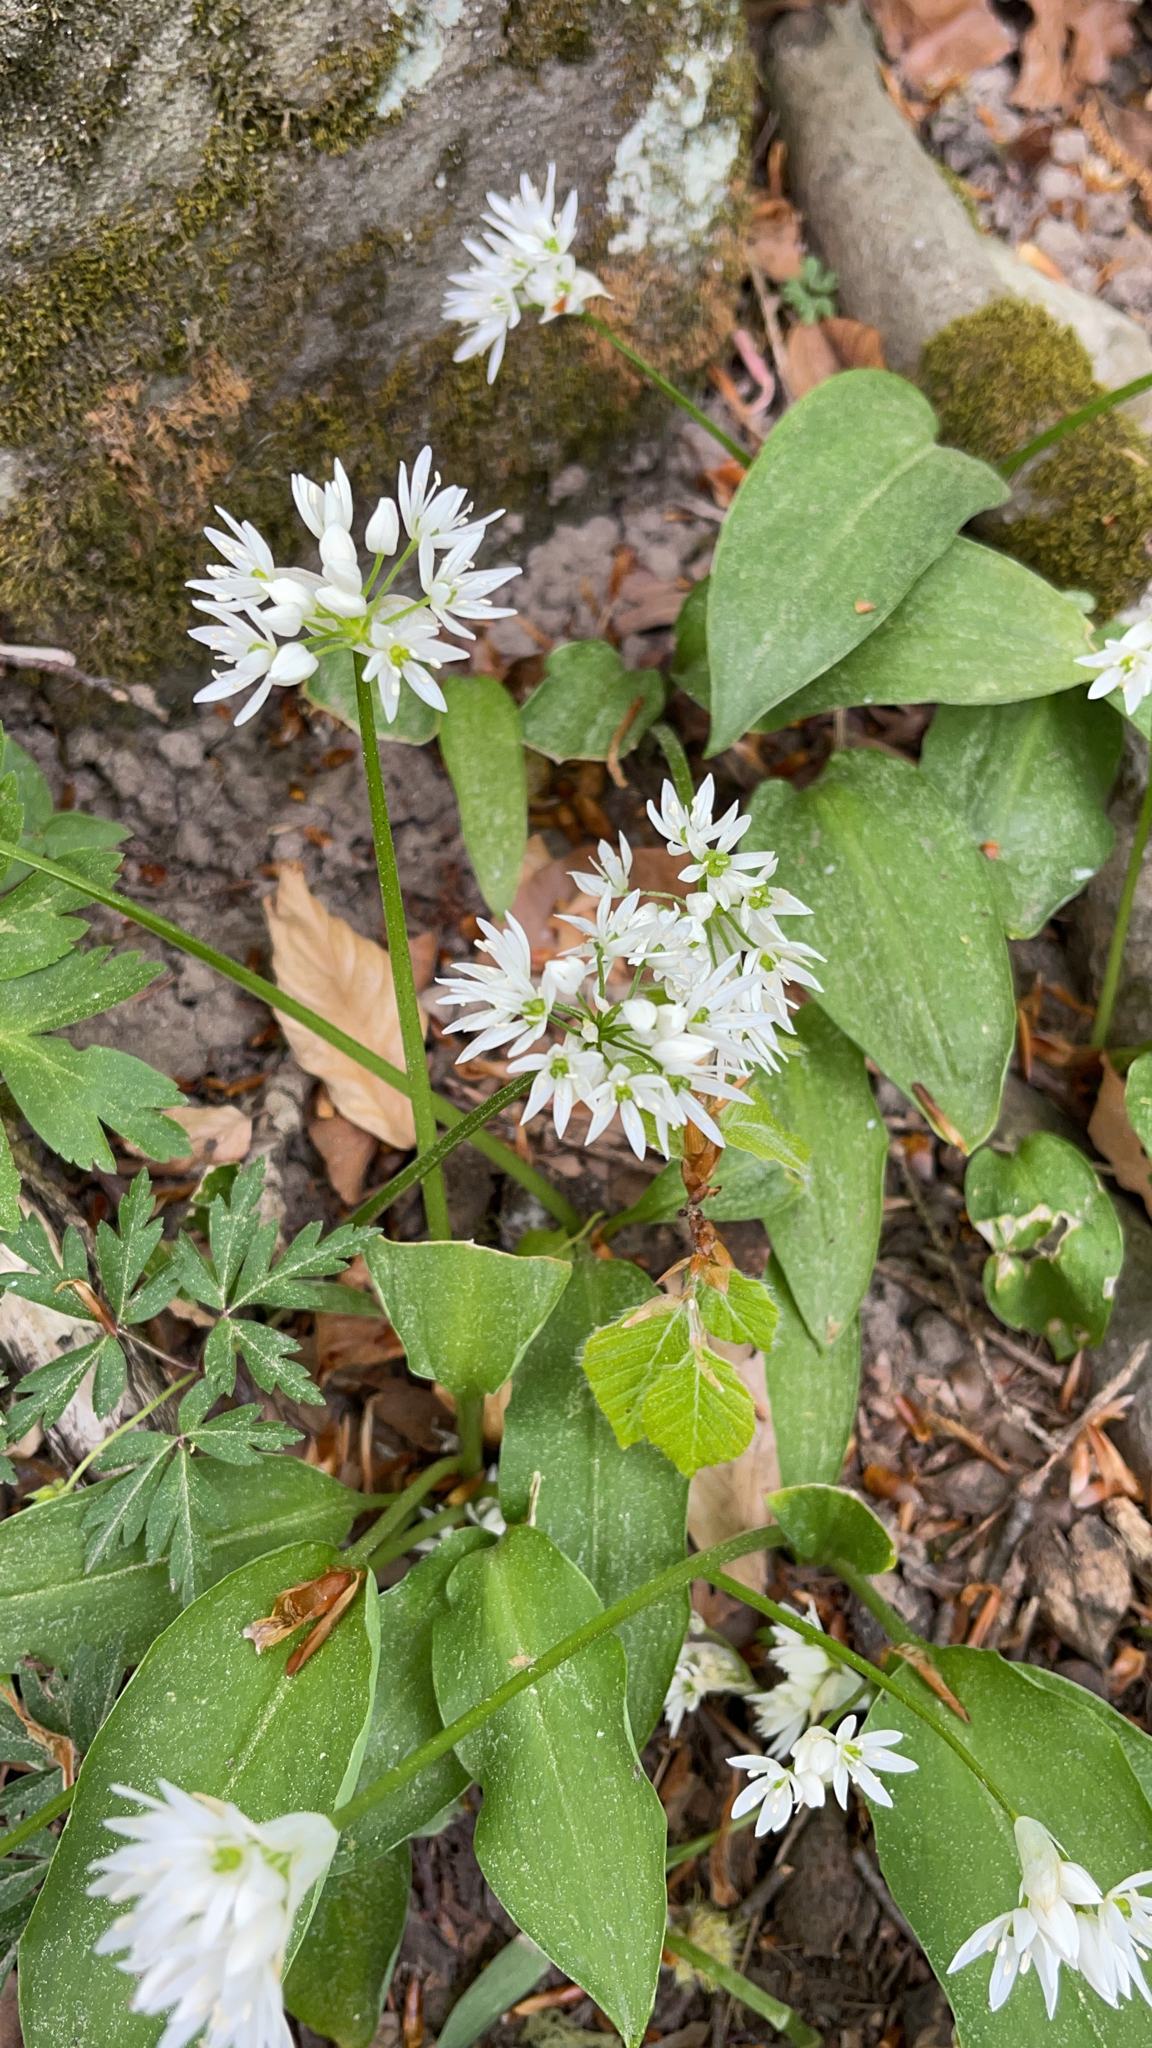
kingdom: Plantae
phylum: Tracheophyta
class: Liliopsida
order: Asparagales
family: Amaryllidaceae
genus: Allium
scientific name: Allium ursinum
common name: Ramsons
